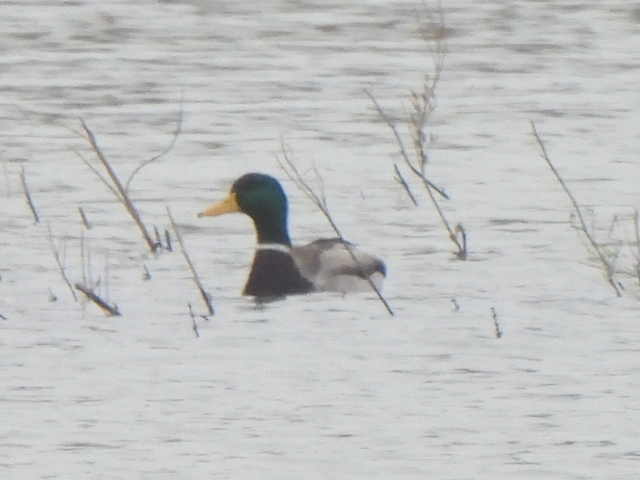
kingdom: Animalia
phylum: Chordata
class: Aves
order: Anseriformes
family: Anatidae
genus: Anas
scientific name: Anas platyrhynchos
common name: Mallard
